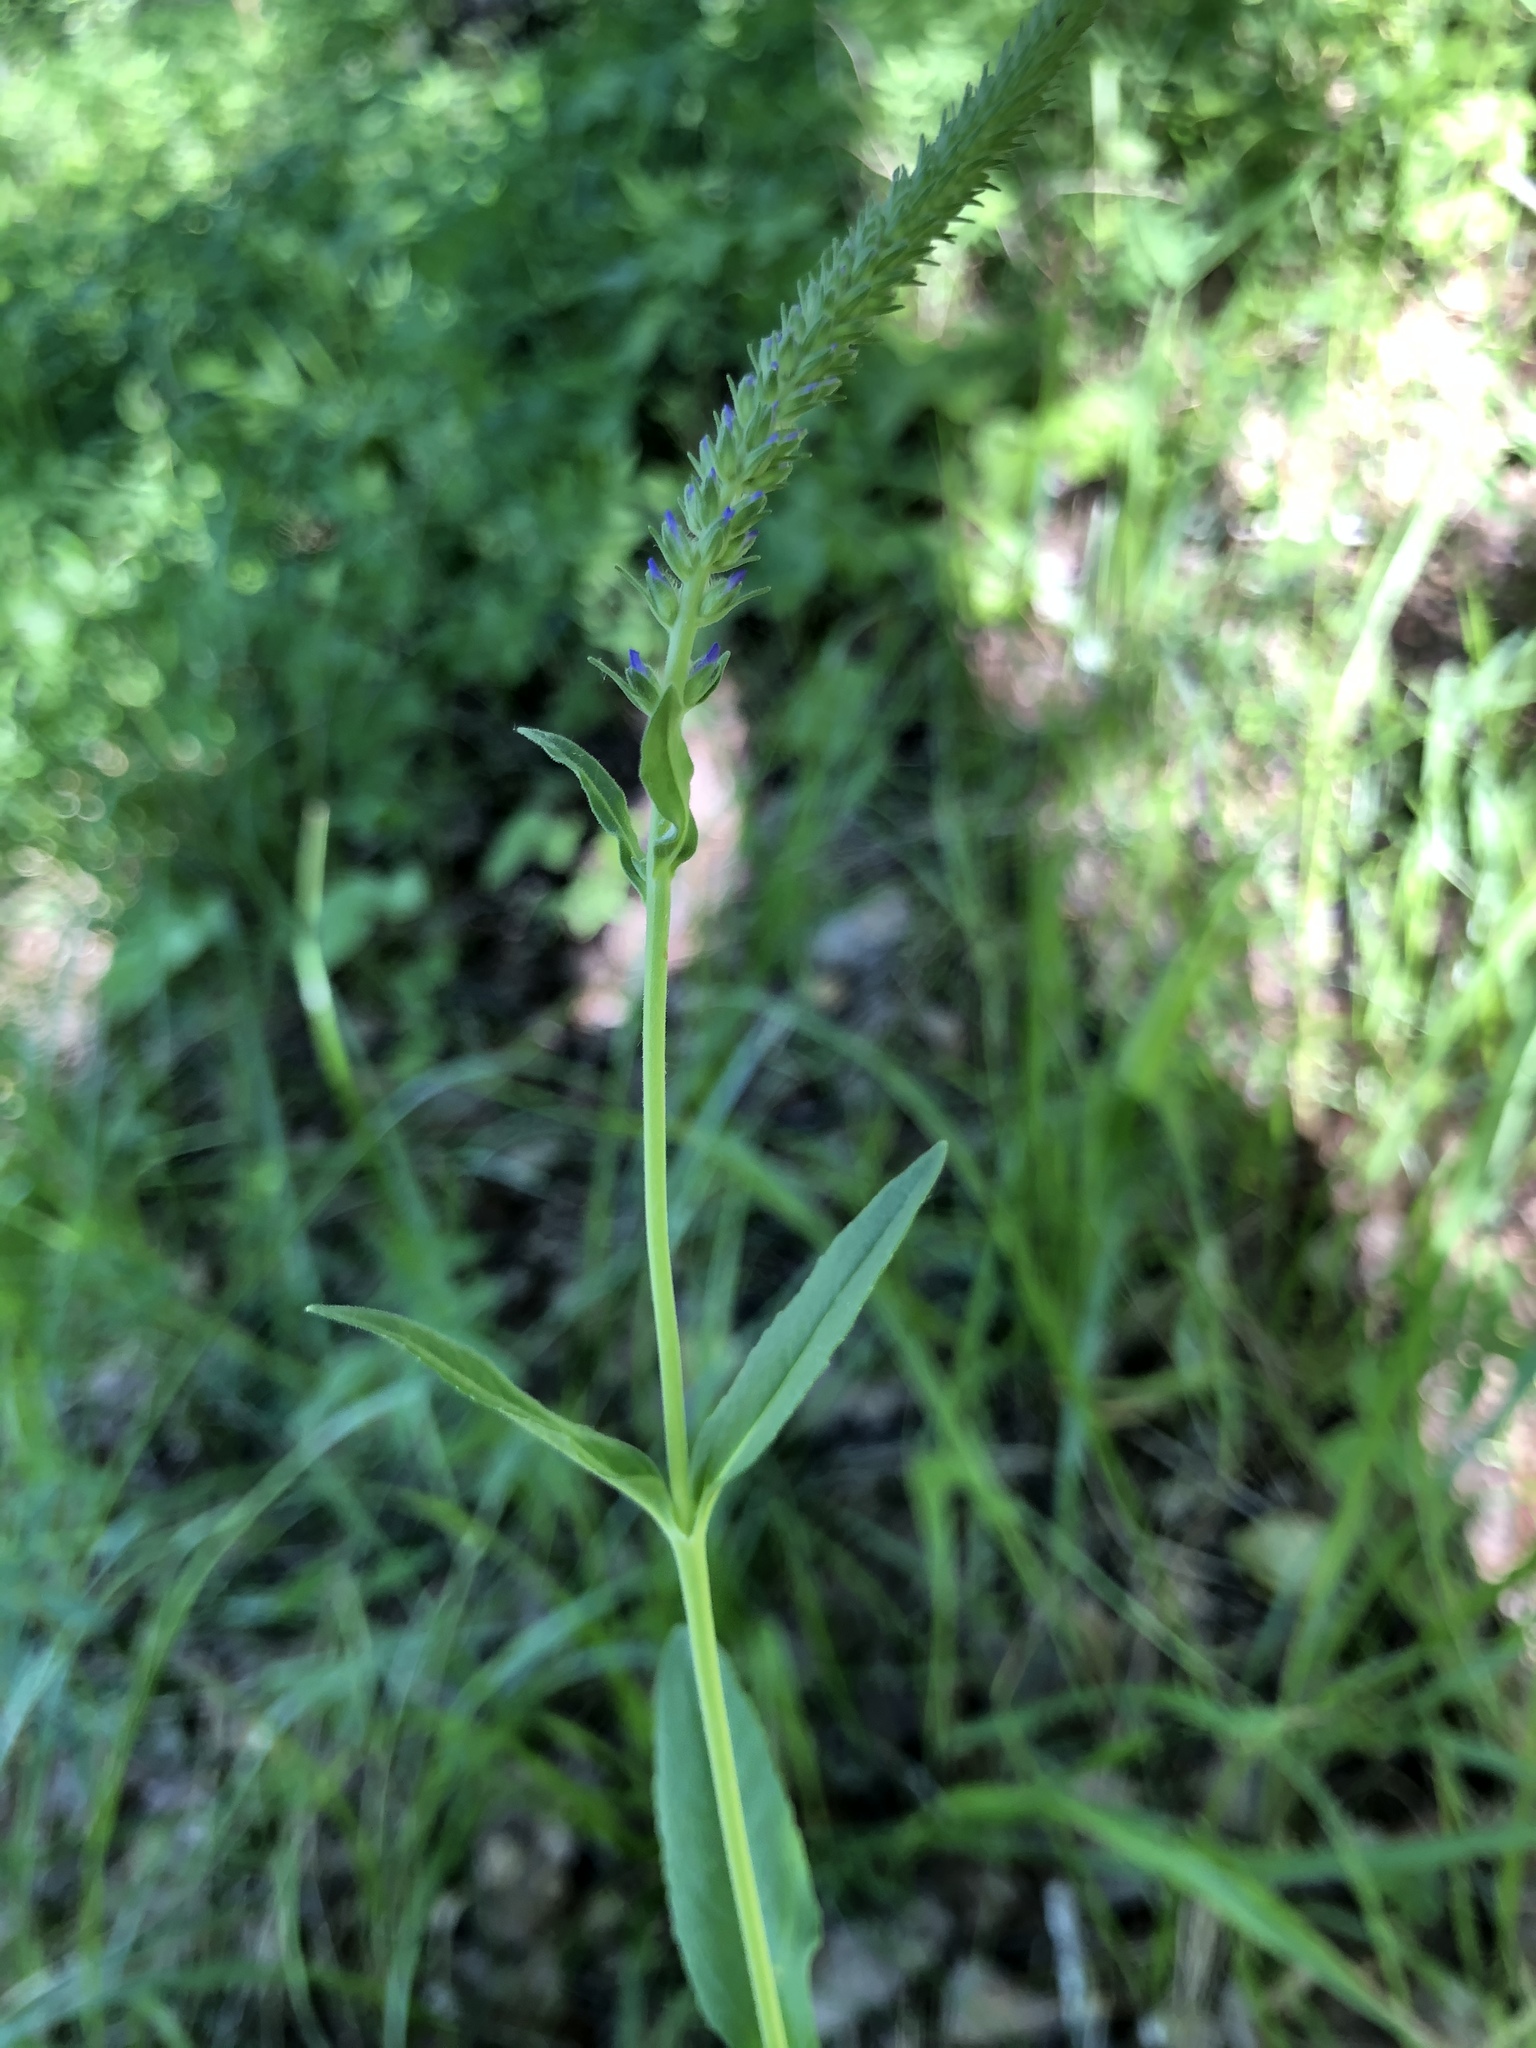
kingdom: Plantae
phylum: Tracheophyta
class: Magnoliopsida
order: Lamiales
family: Plantaginaceae
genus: Veronica
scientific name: Veronica spicata
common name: Spiked speedwell
